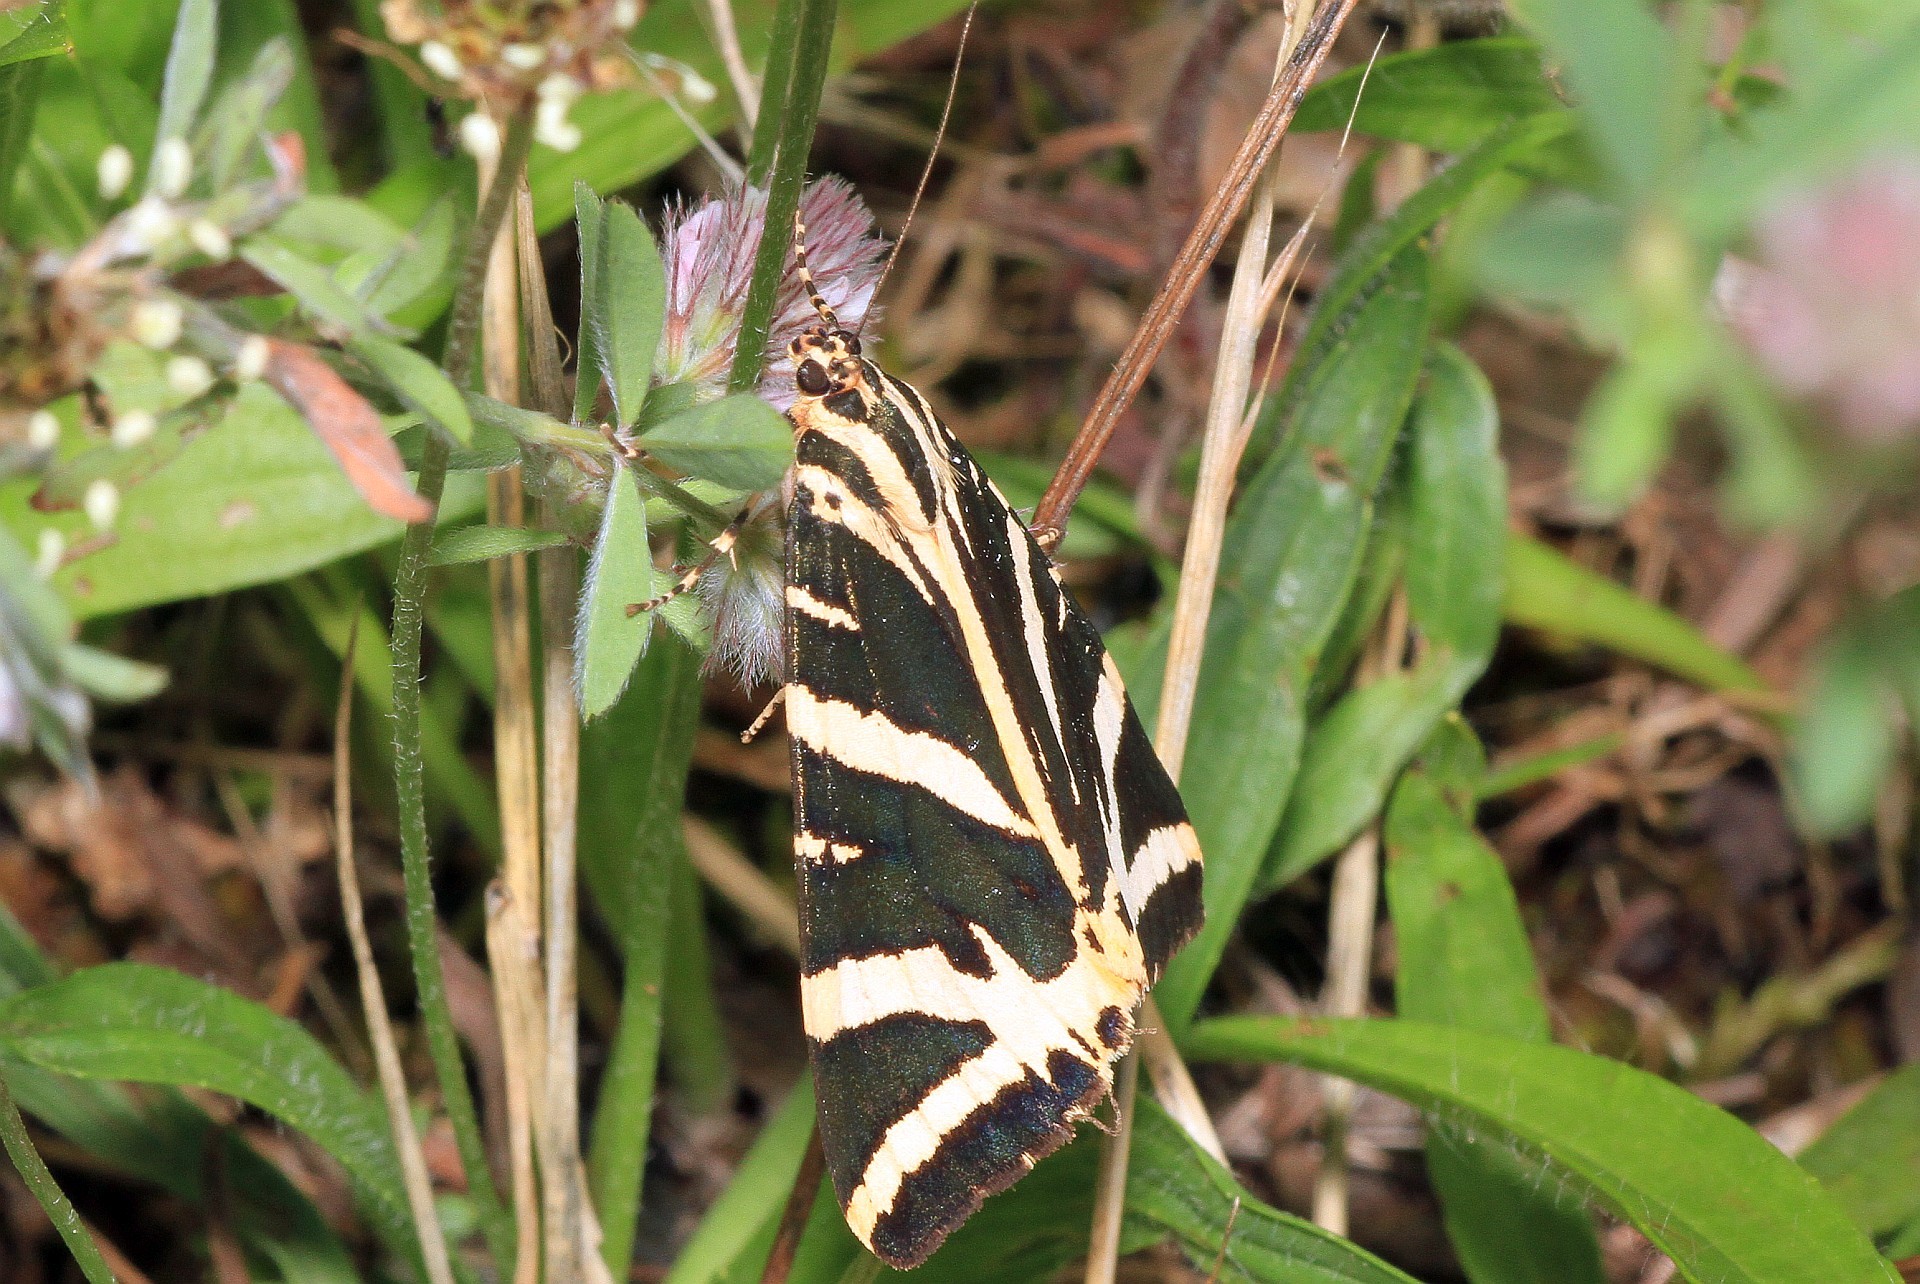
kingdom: Animalia
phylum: Arthropoda
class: Insecta
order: Lepidoptera
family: Erebidae
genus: Euplagia
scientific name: Euplagia quadripunctaria
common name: Jersey tiger
